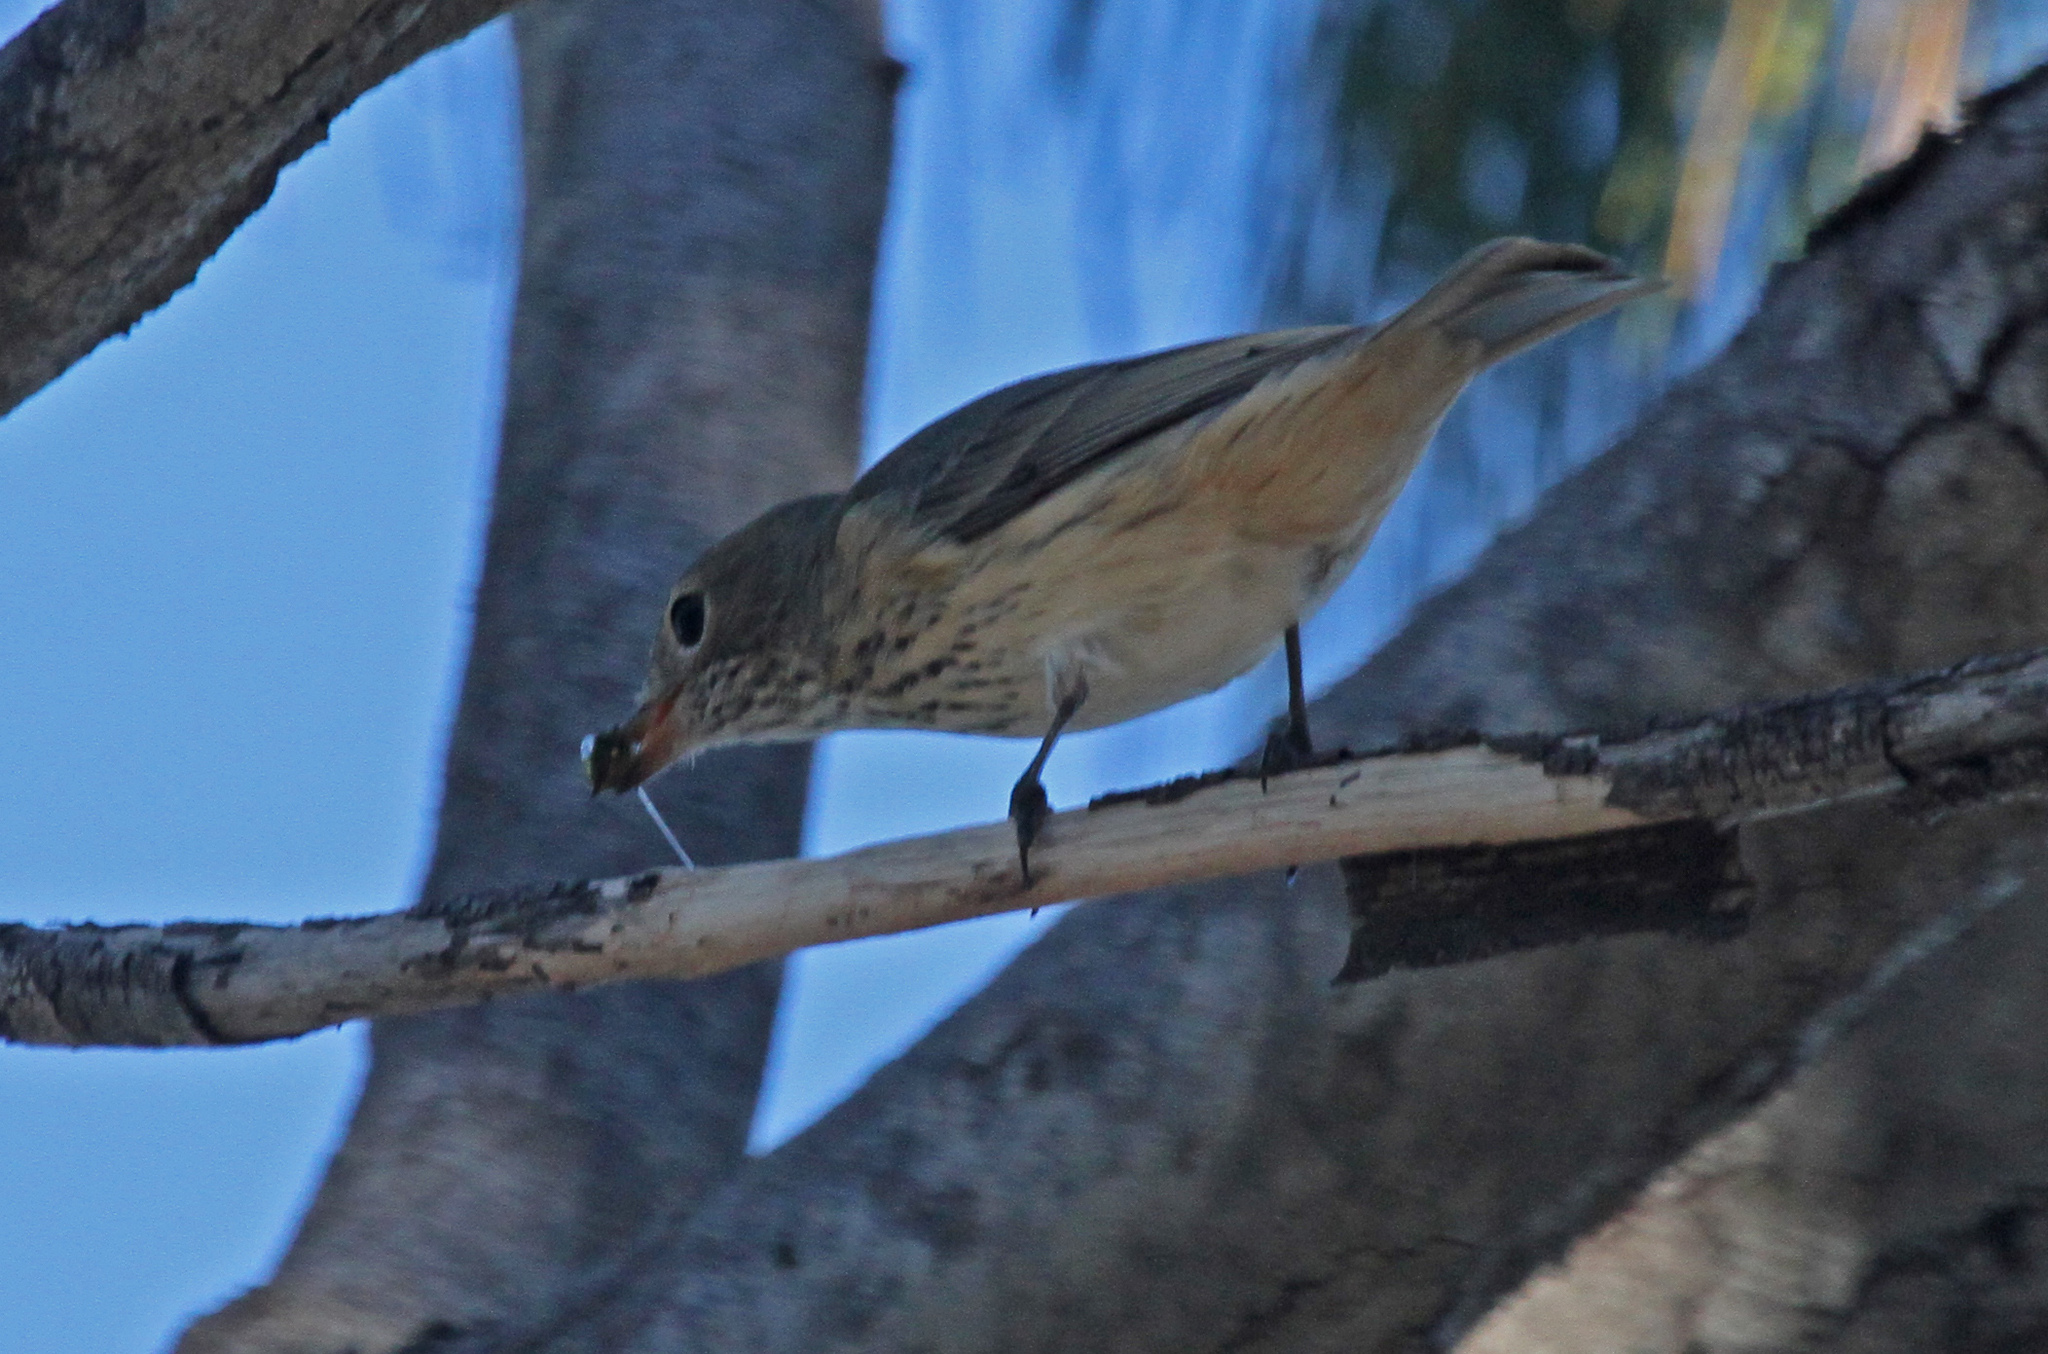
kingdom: Animalia
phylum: Chordata
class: Aves
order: Passeriformes
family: Pachycephalidae
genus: Pachycephala
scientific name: Pachycephala rufiventris
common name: Rufous whistler
